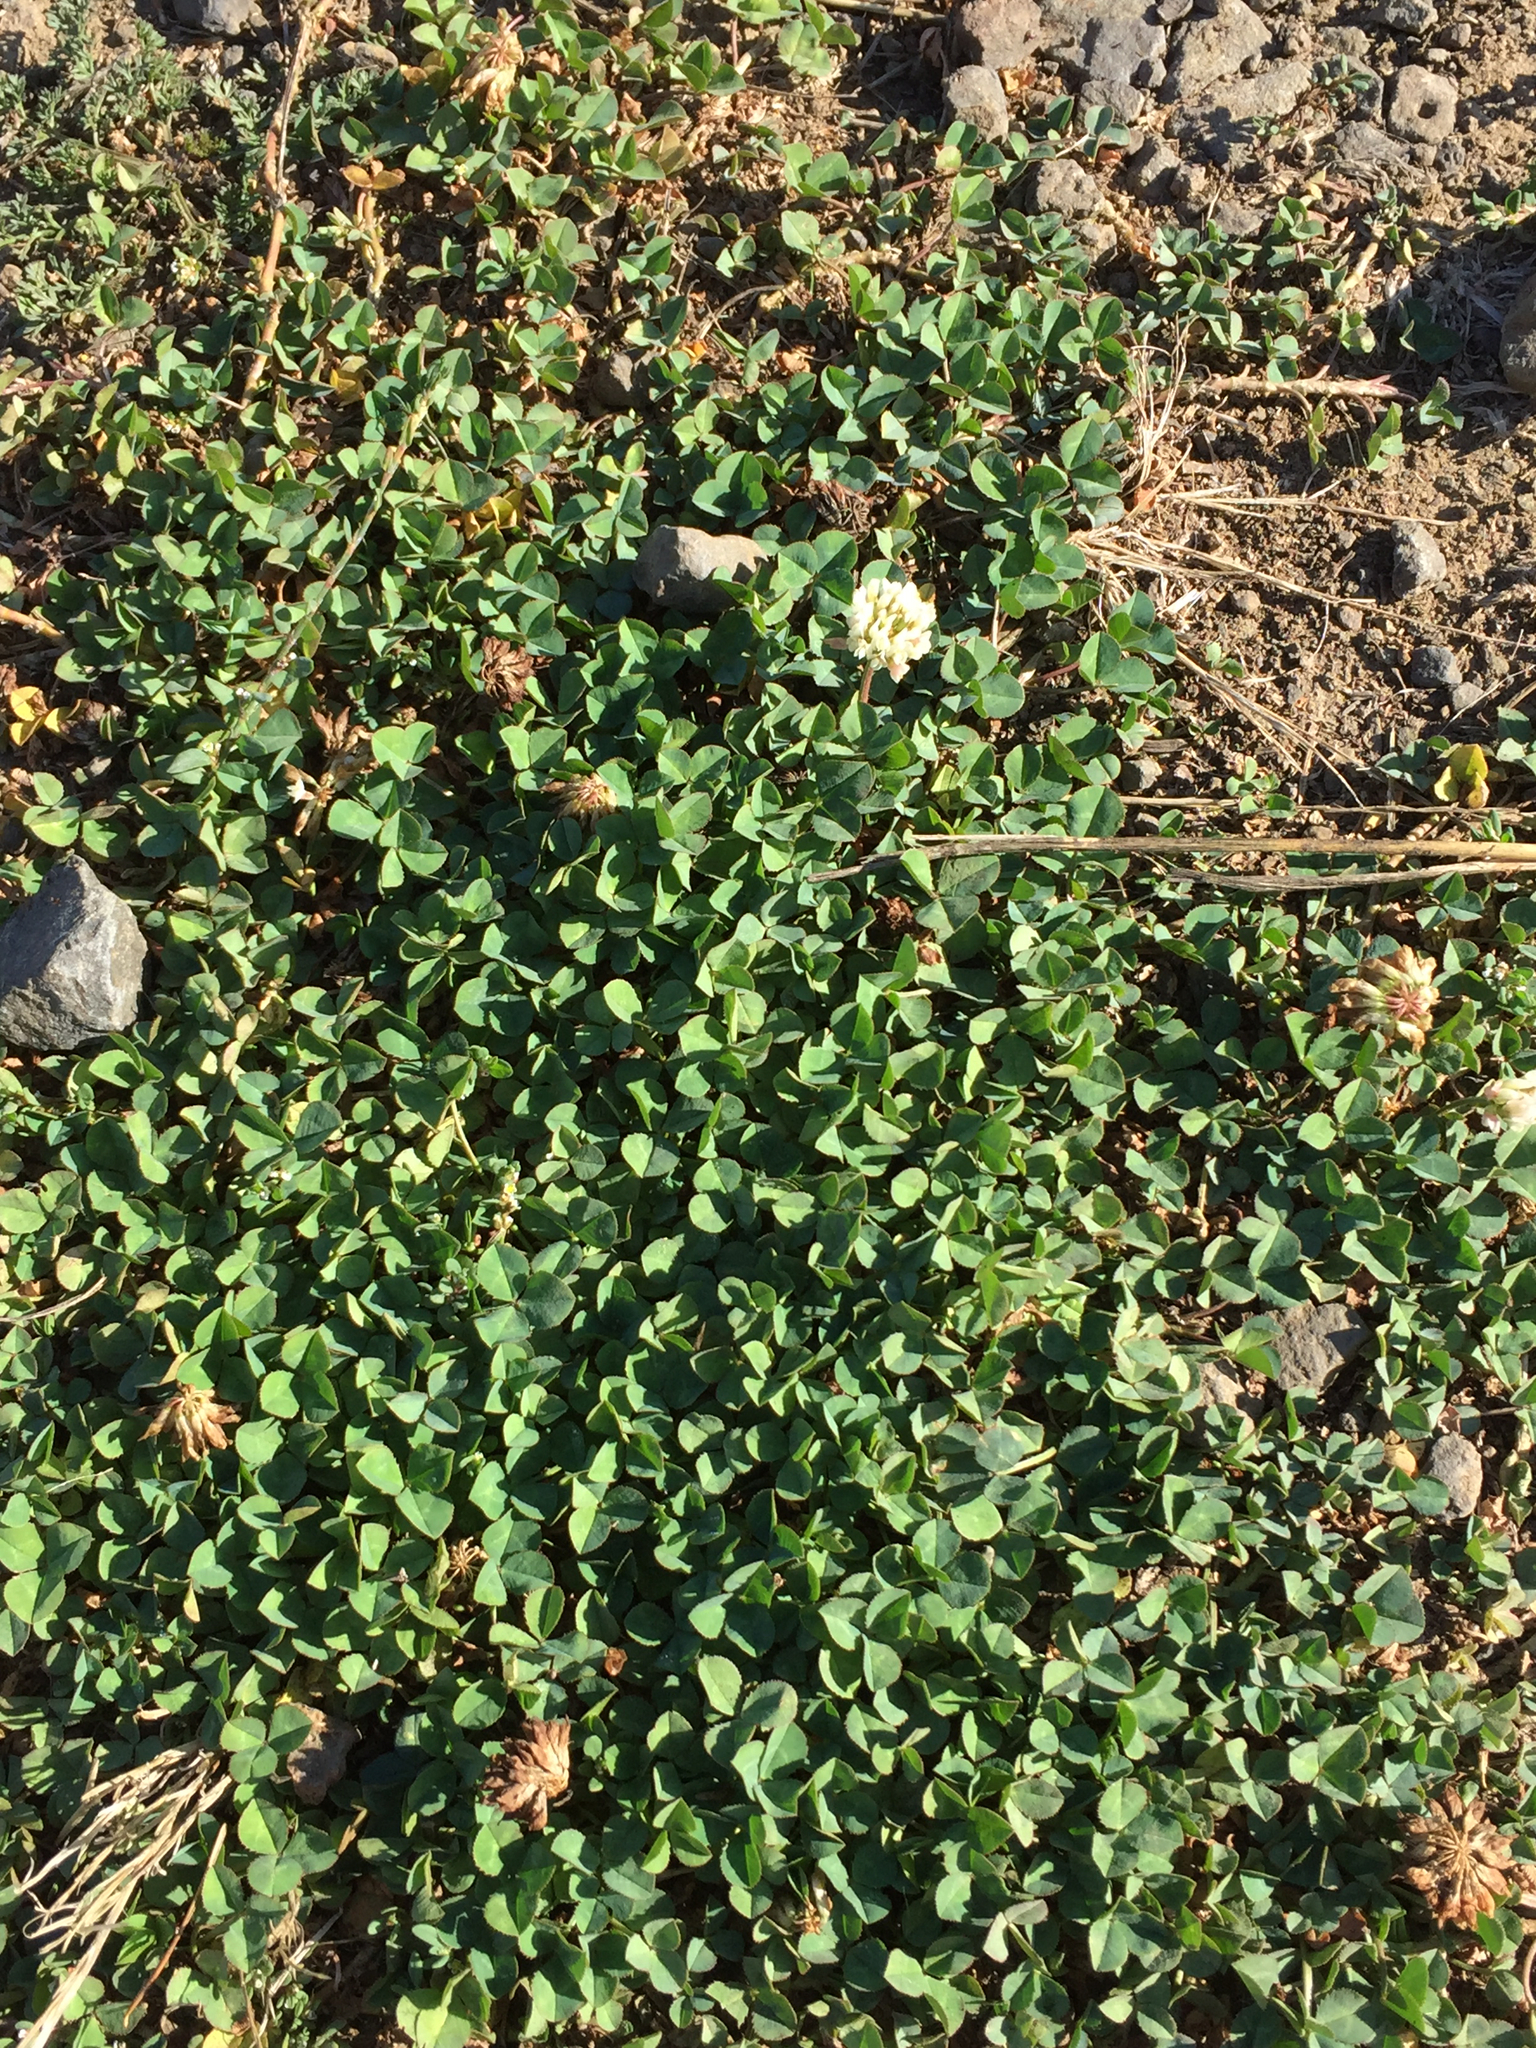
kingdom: Plantae
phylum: Tracheophyta
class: Magnoliopsida
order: Fabales
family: Fabaceae
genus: Trifolium
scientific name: Trifolium repens
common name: White clover
